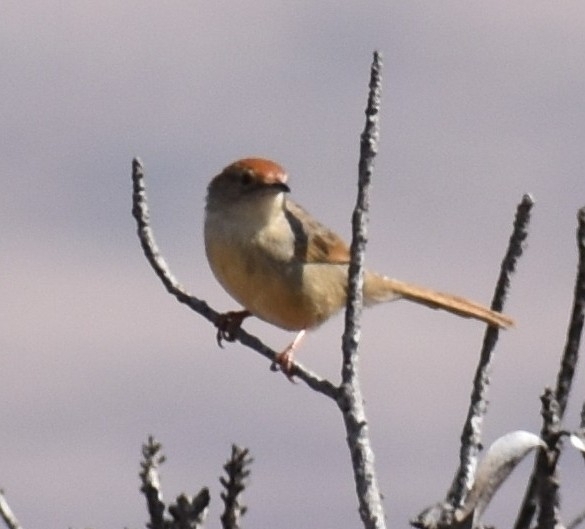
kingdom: Animalia
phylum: Chordata
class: Aves
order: Passeriformes
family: Cisticolidae
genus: Cisticola
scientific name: Cisticola aberrans
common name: Lazy cisticola
